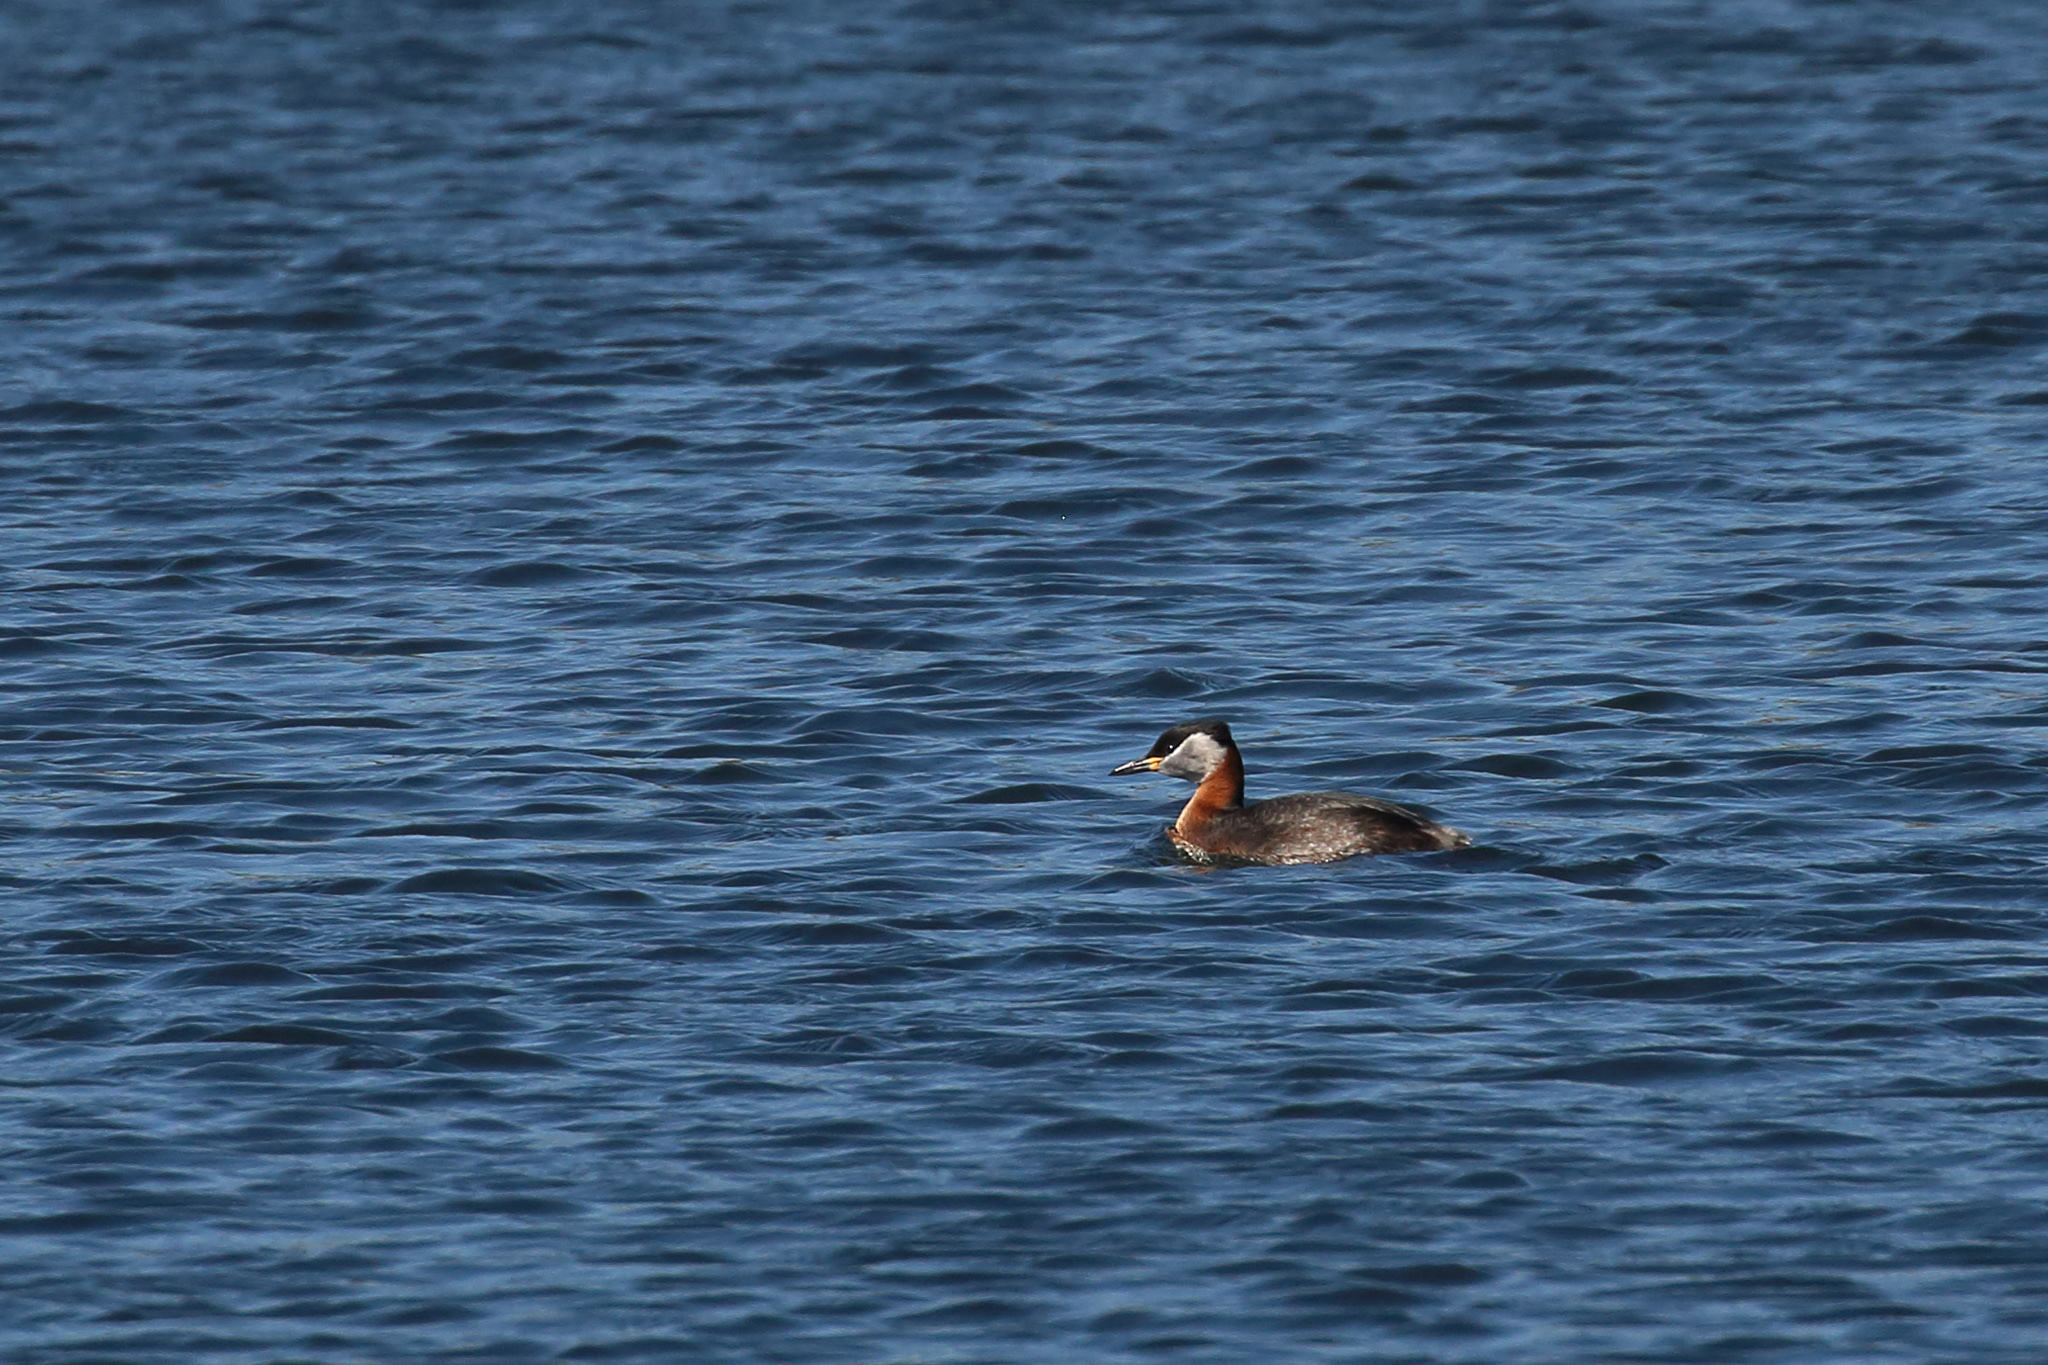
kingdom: Animalia
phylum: Chordata
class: Aves
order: Podicipediformes
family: Podicipedidae
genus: Podiceps
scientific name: Podiceps grisegena
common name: Red-necked grebe
